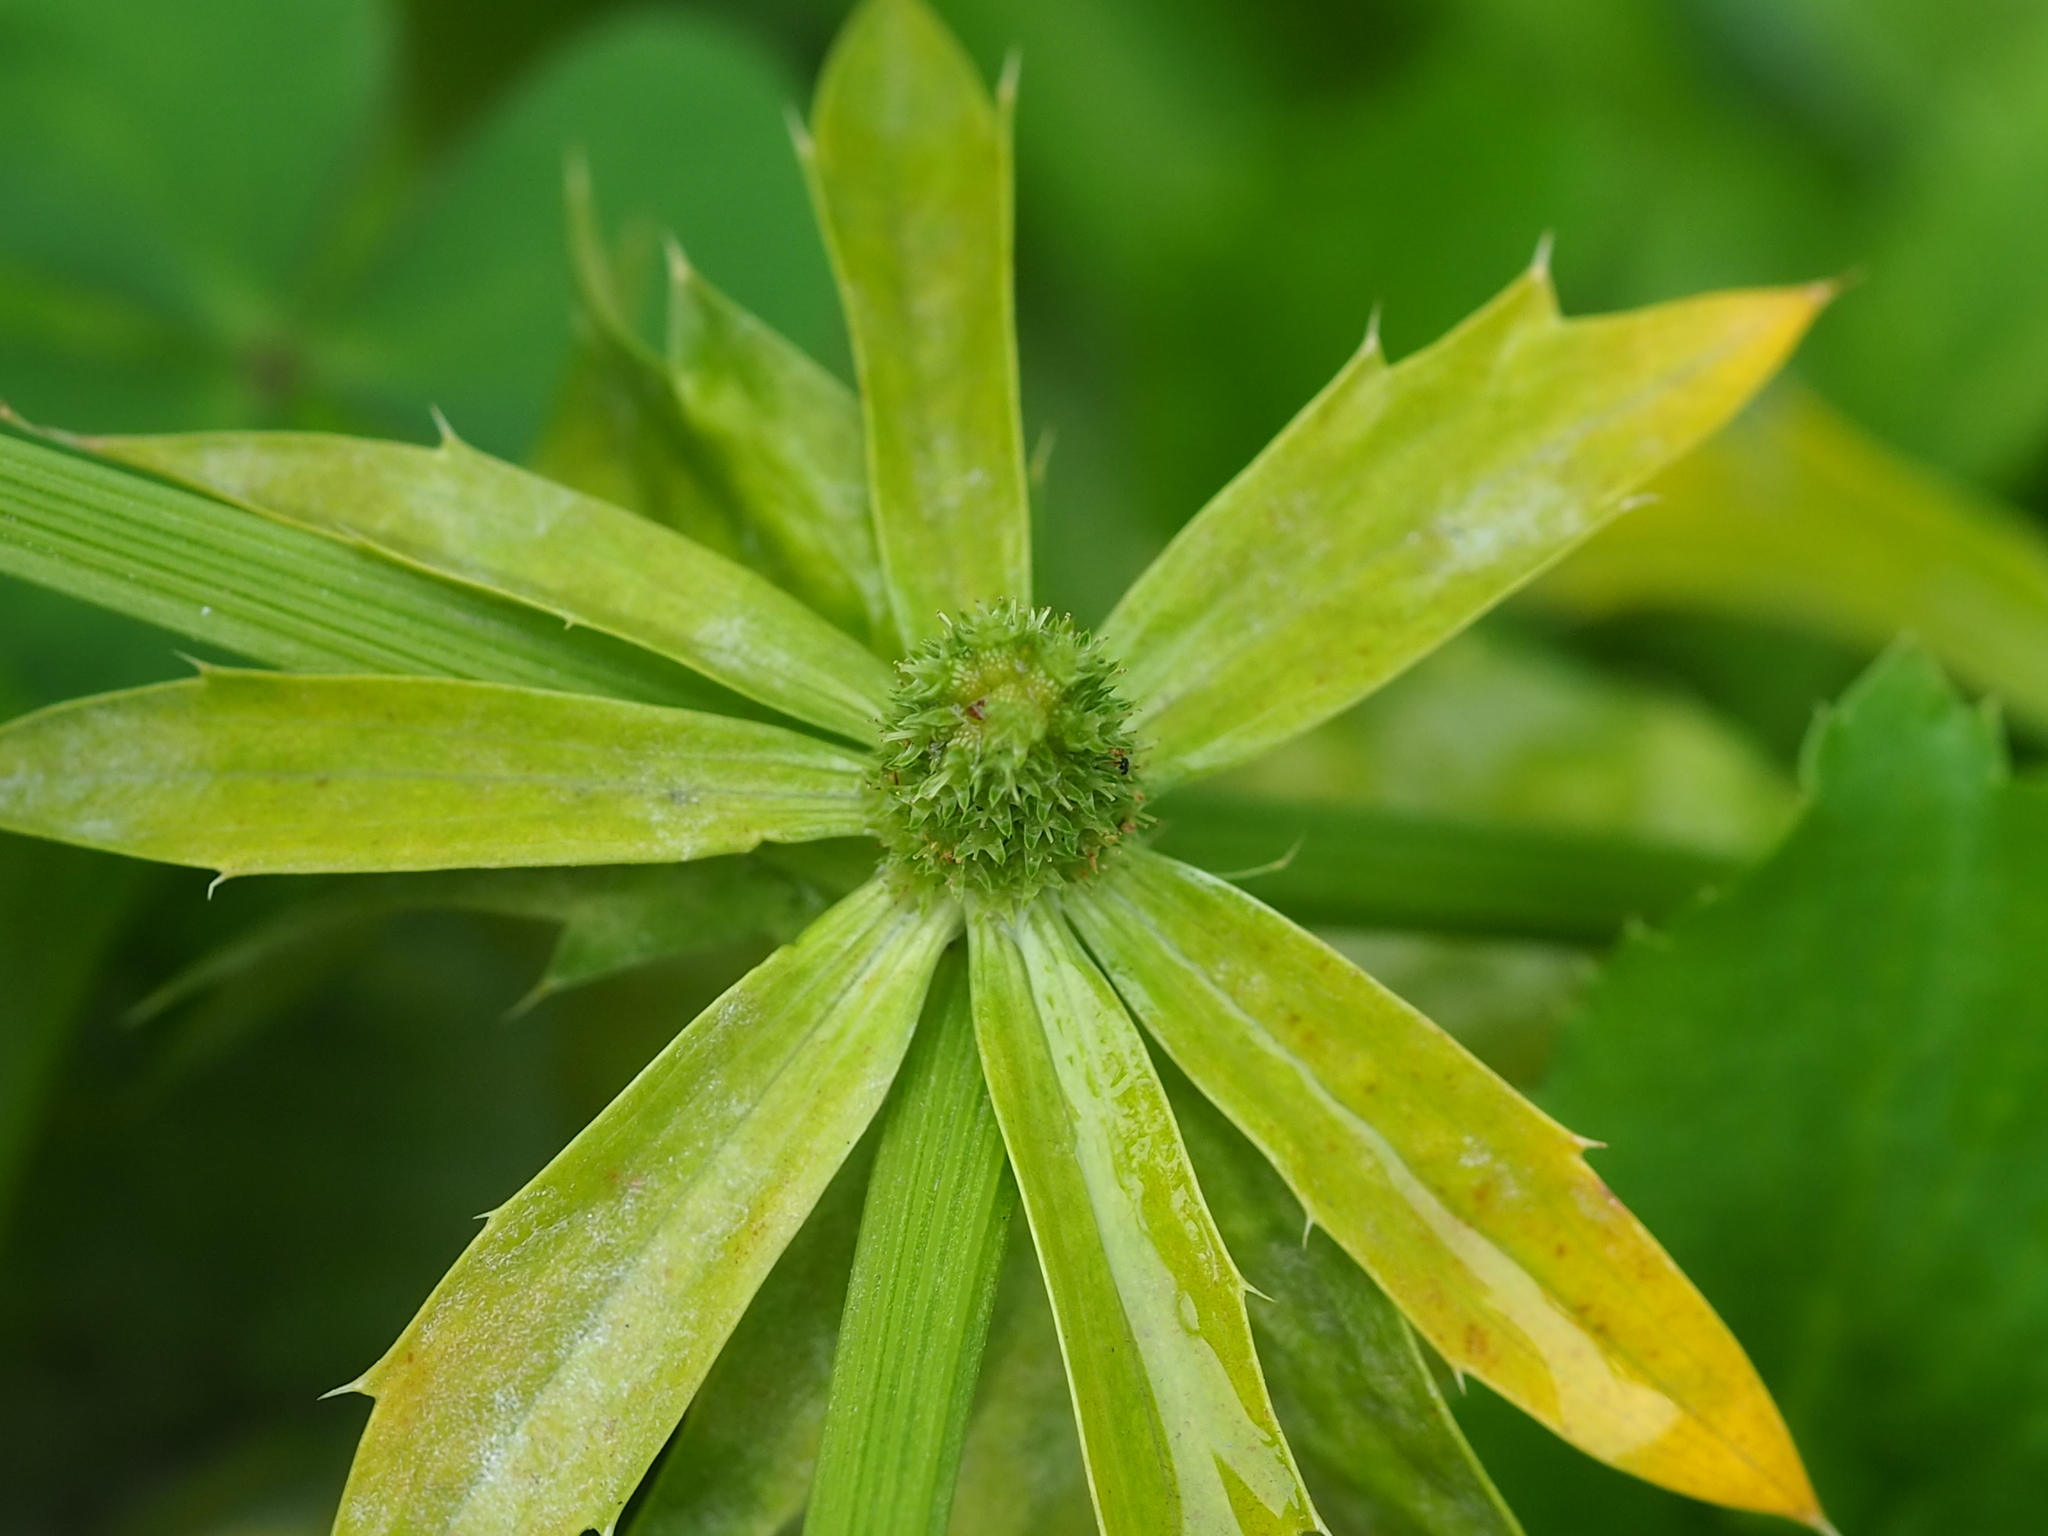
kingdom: Plantae
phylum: Tracheophyta
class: Magnoliopsida
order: Apiales
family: Apiaceae
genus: Eryngium
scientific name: Eryngium foetidum
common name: Fitweed
